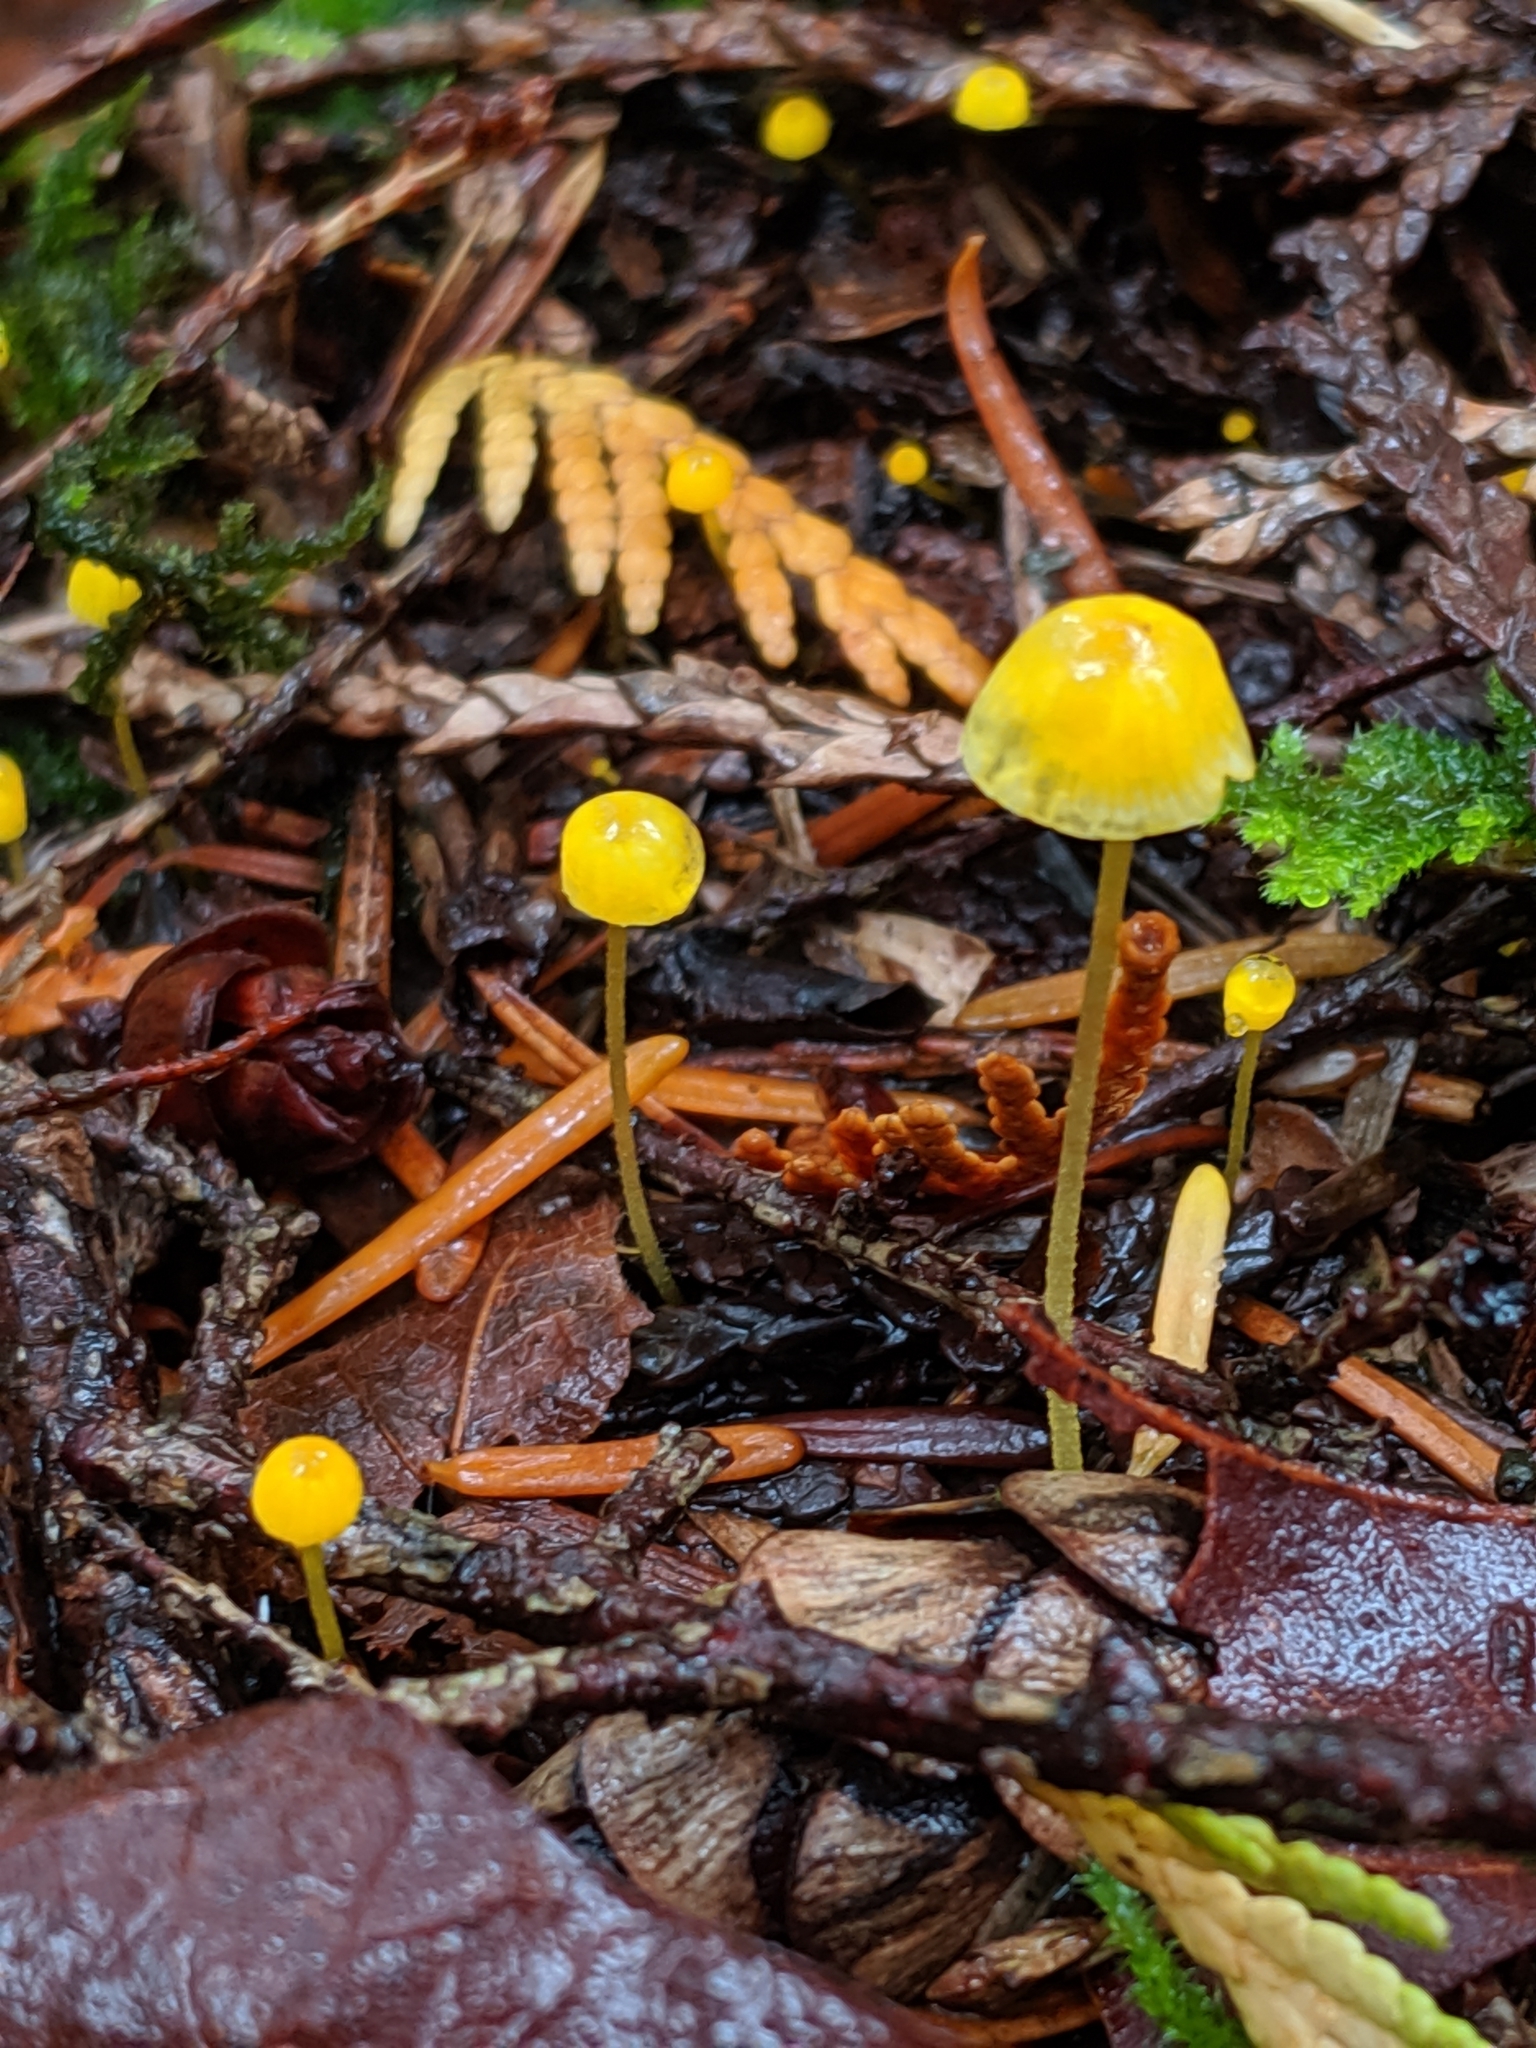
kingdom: Fungi
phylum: Basidiomycota
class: Agaricomycetes
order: Agaricales
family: Mycenaceae
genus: Mycena
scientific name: Mycena oregonensis
